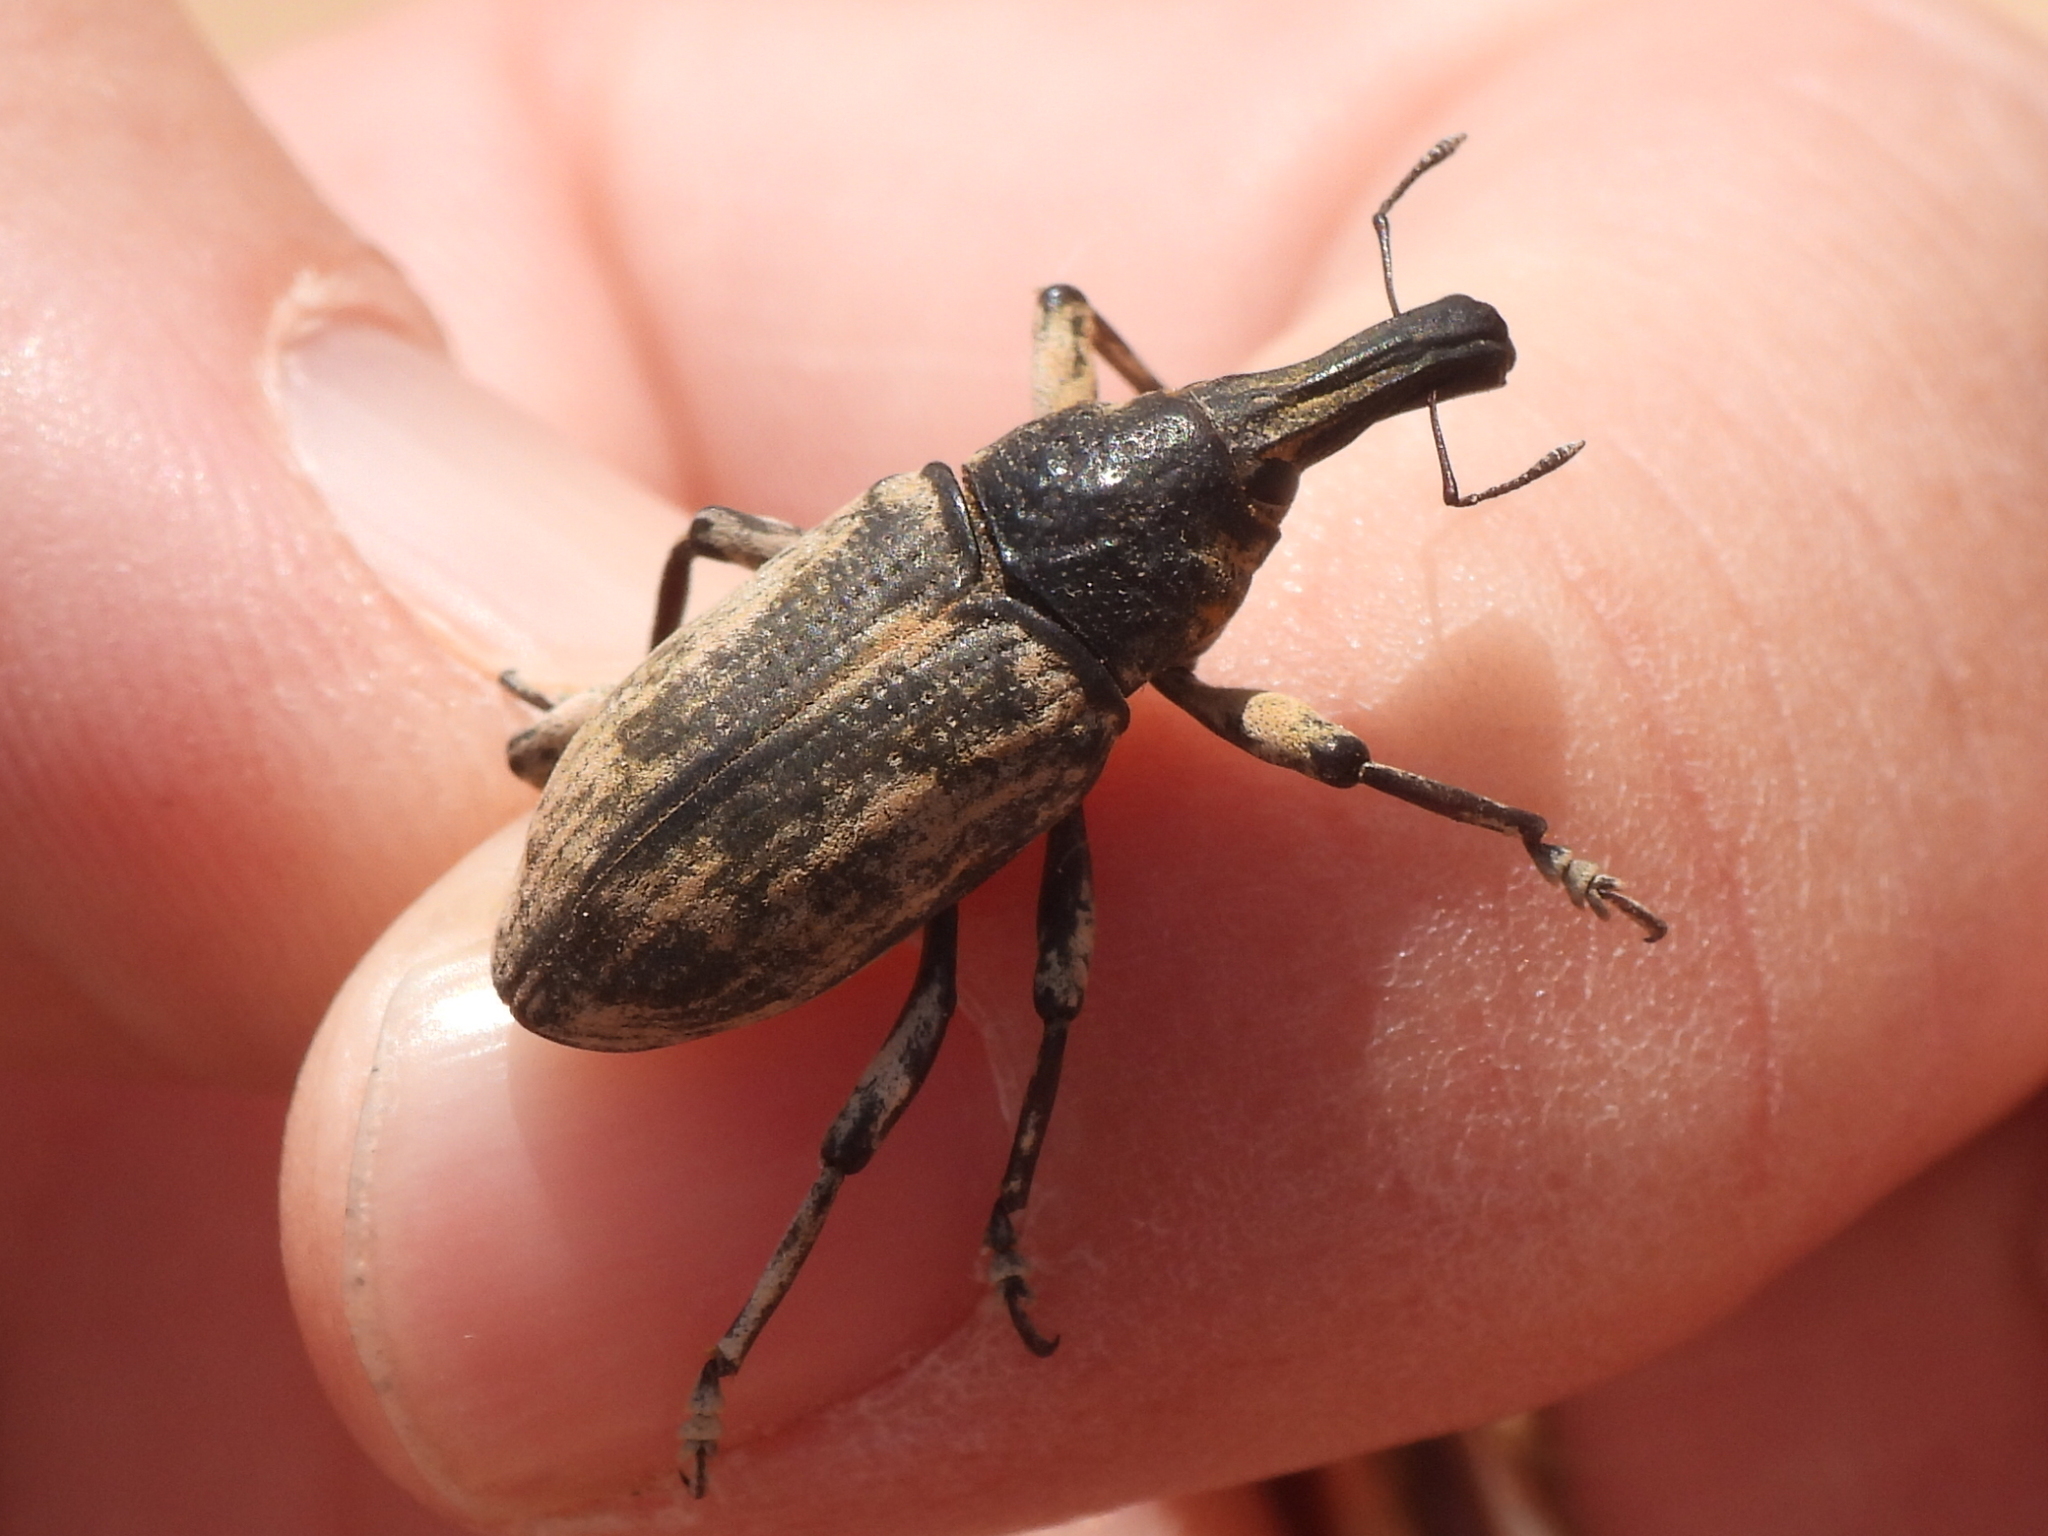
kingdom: Animalia
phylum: Arthropoda
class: Insecta
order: Coleoptera
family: Curculionidae
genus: Ammocleonus
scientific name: Ammocleonus hieroglyphicus
